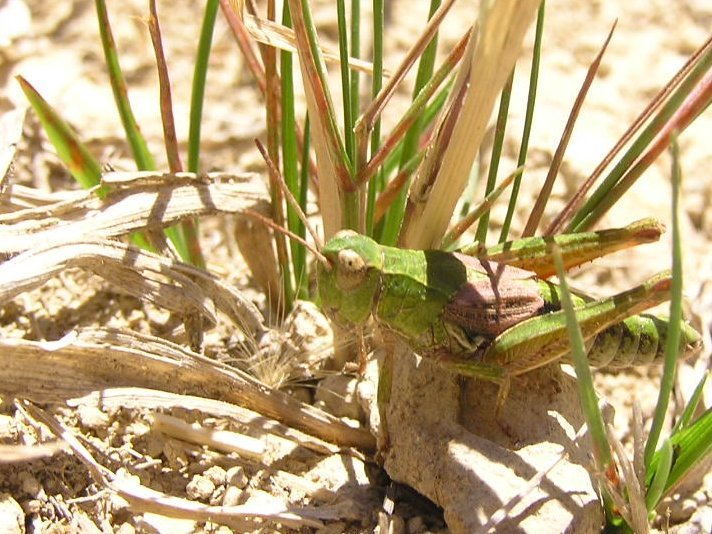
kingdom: Animalia
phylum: Arthropoda
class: Insecta
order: Orthoptera
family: Acrididae
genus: Phaulacridium
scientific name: Phaulacridium marginale
